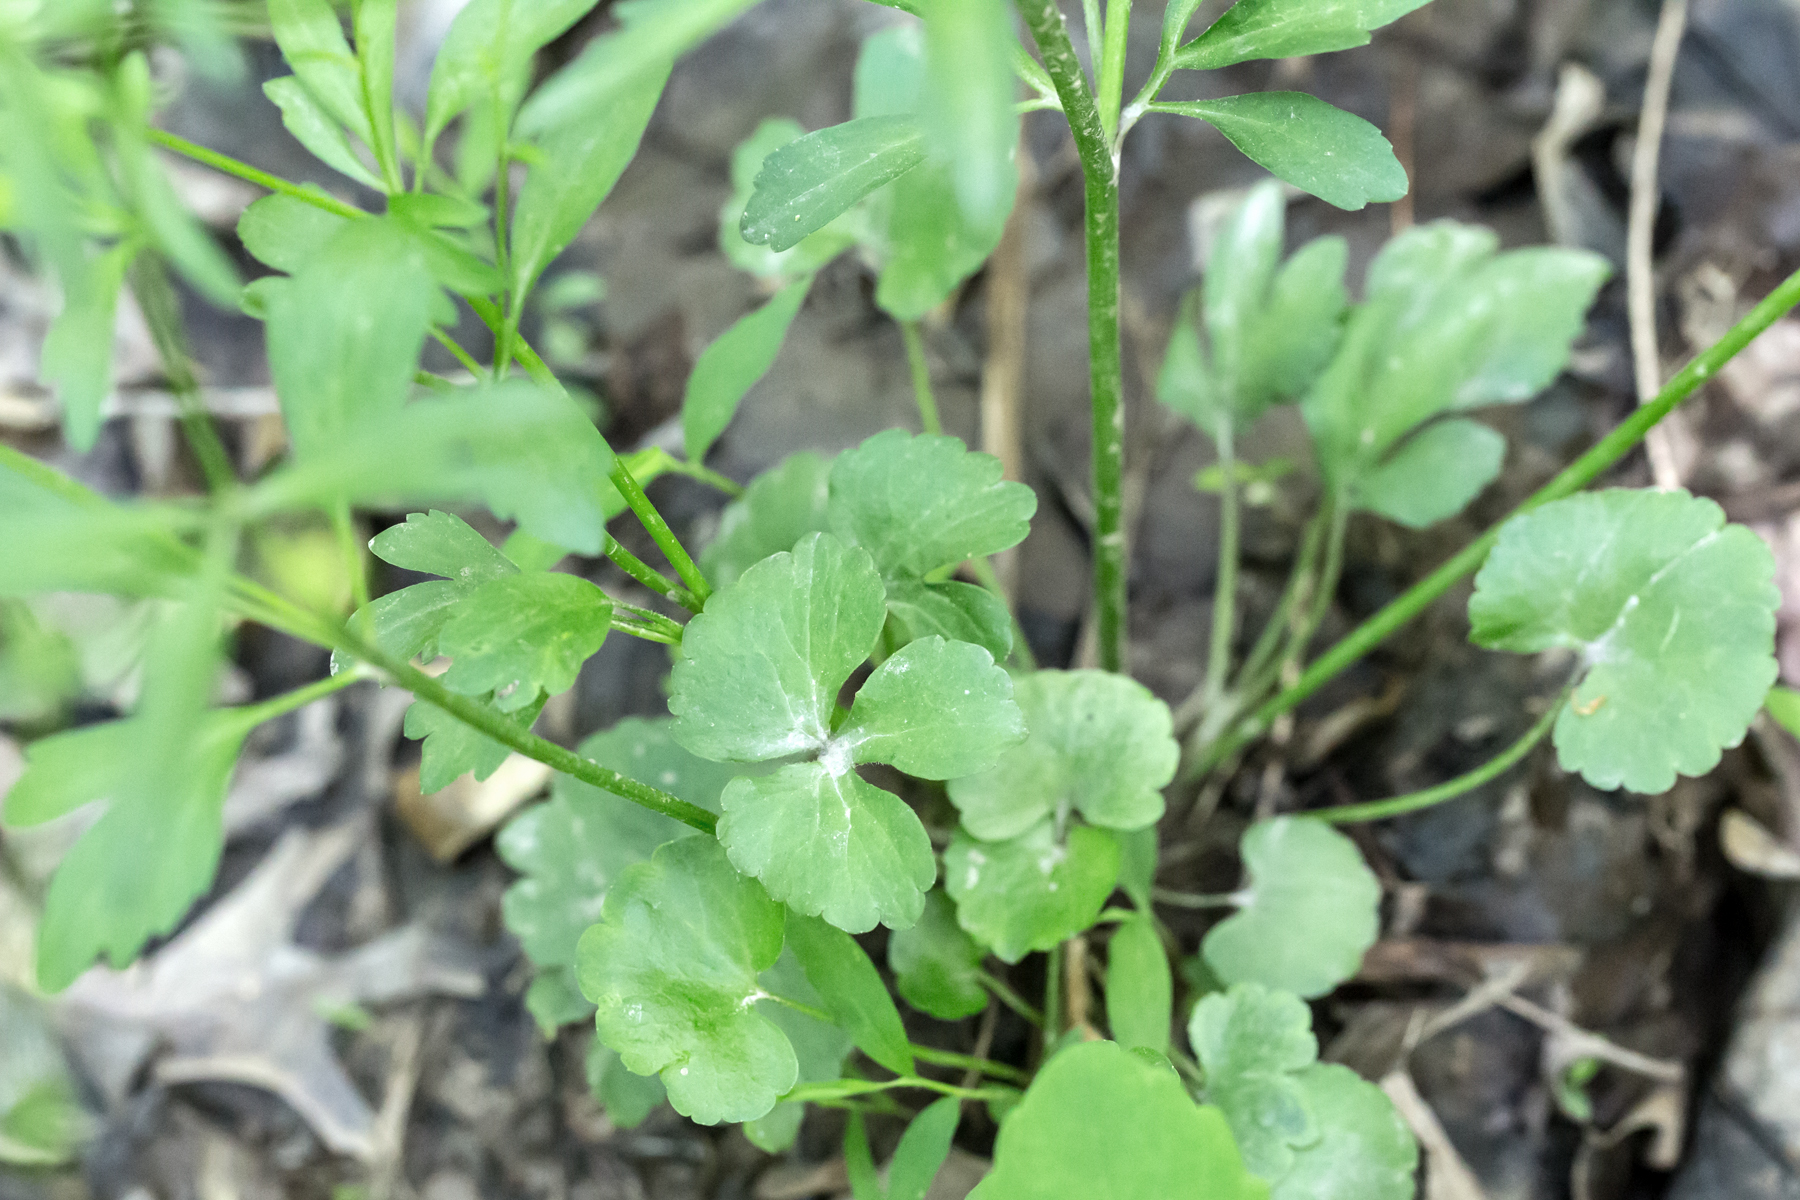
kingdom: Plantae
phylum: Tracheophyta
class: Magnoliopsida
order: Ranunculales
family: Ranunculaceae
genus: Ranunculus
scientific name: Ranunculus abortivus
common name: Early wood buttercup
